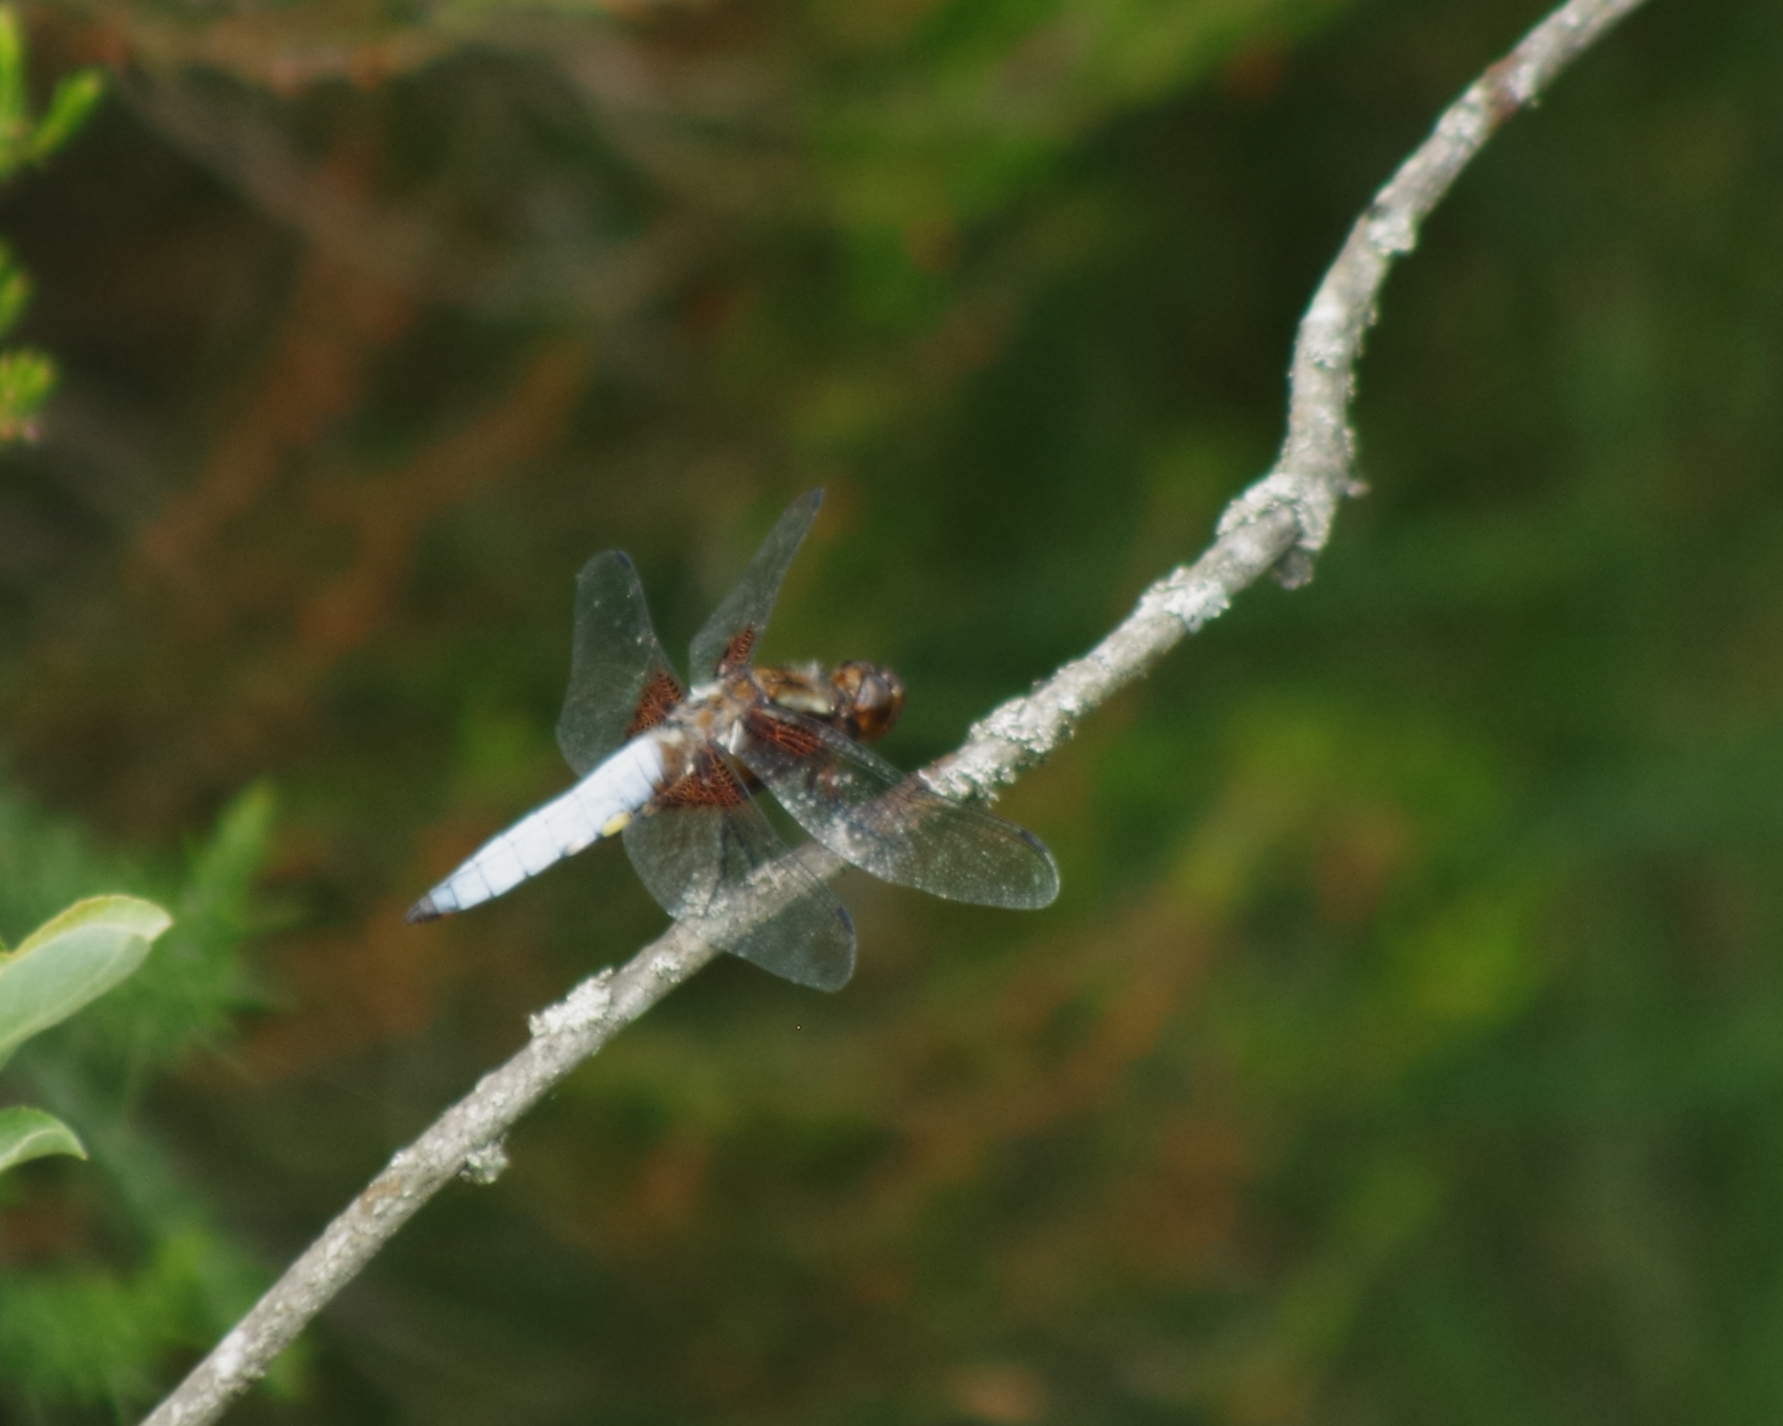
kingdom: Animalia
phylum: Arthropoda
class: Insecta
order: Odonata
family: Libellulidae
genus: Libellula
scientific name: Libellula depressa
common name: Broad-bodied chaser
